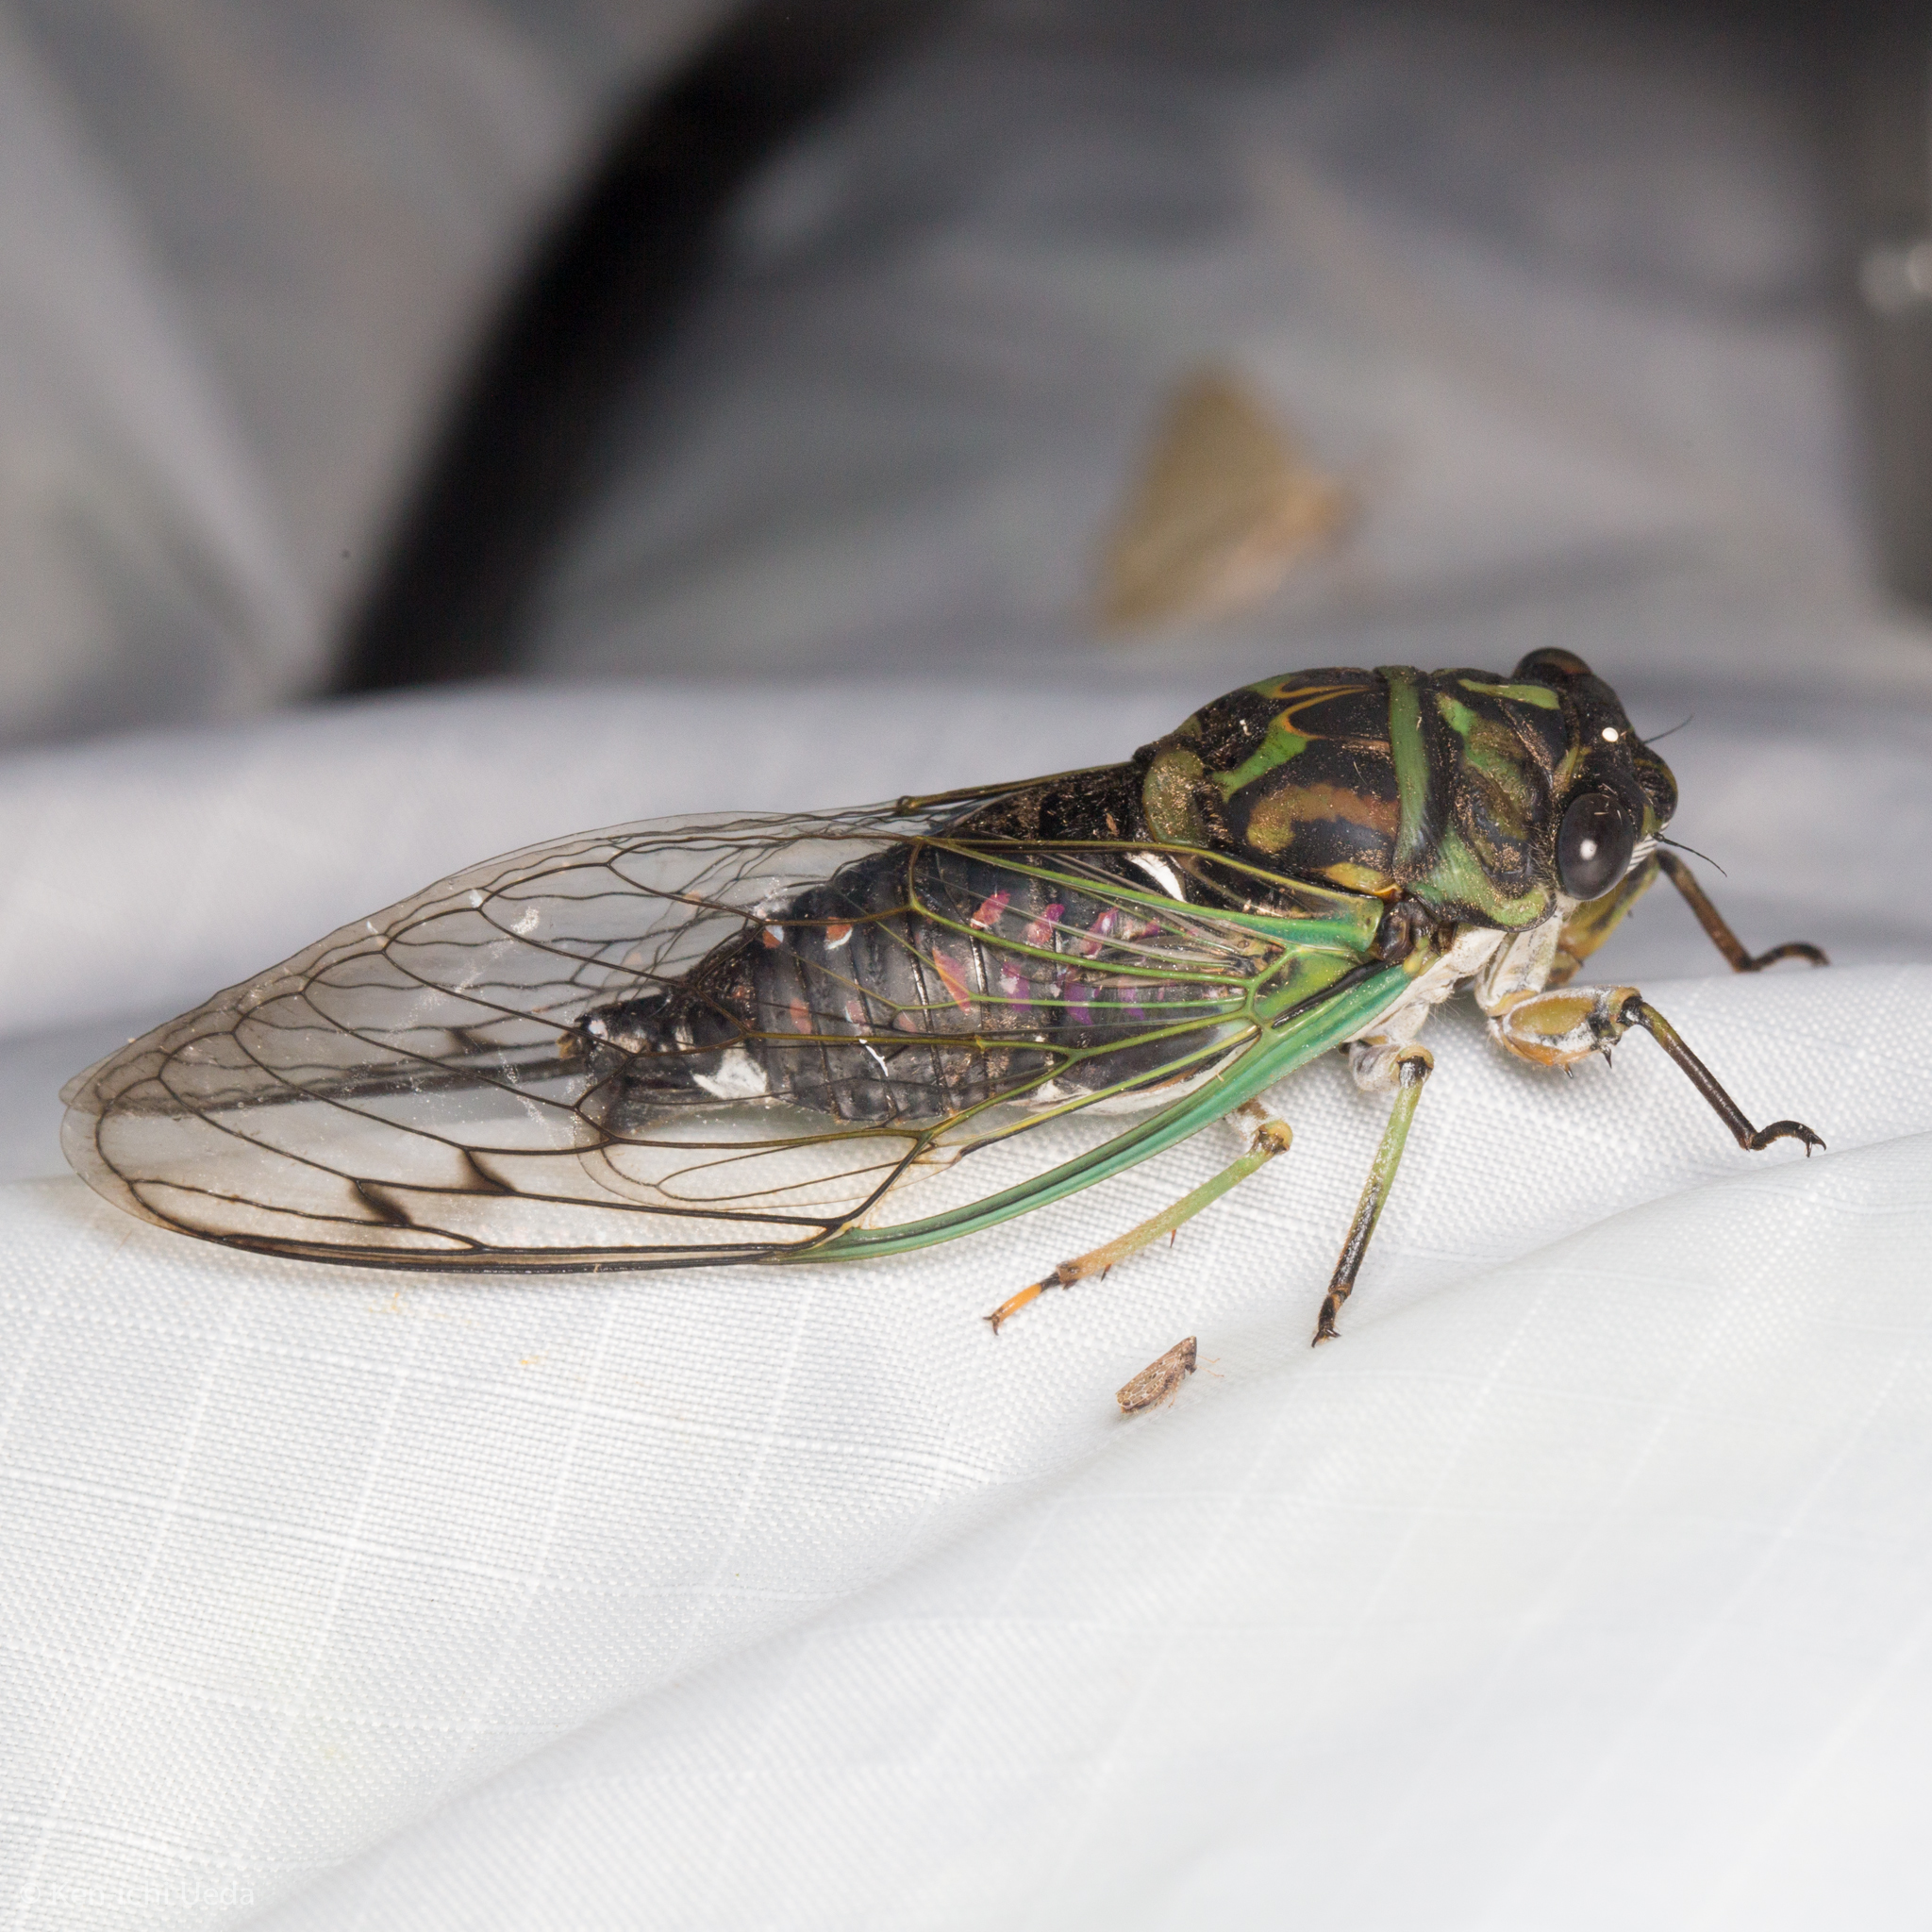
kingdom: Animalia
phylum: Arthropoda
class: Insecta
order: Hemiptera
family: Cicadidae
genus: Neotibicen
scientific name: Neotibicen linnei
